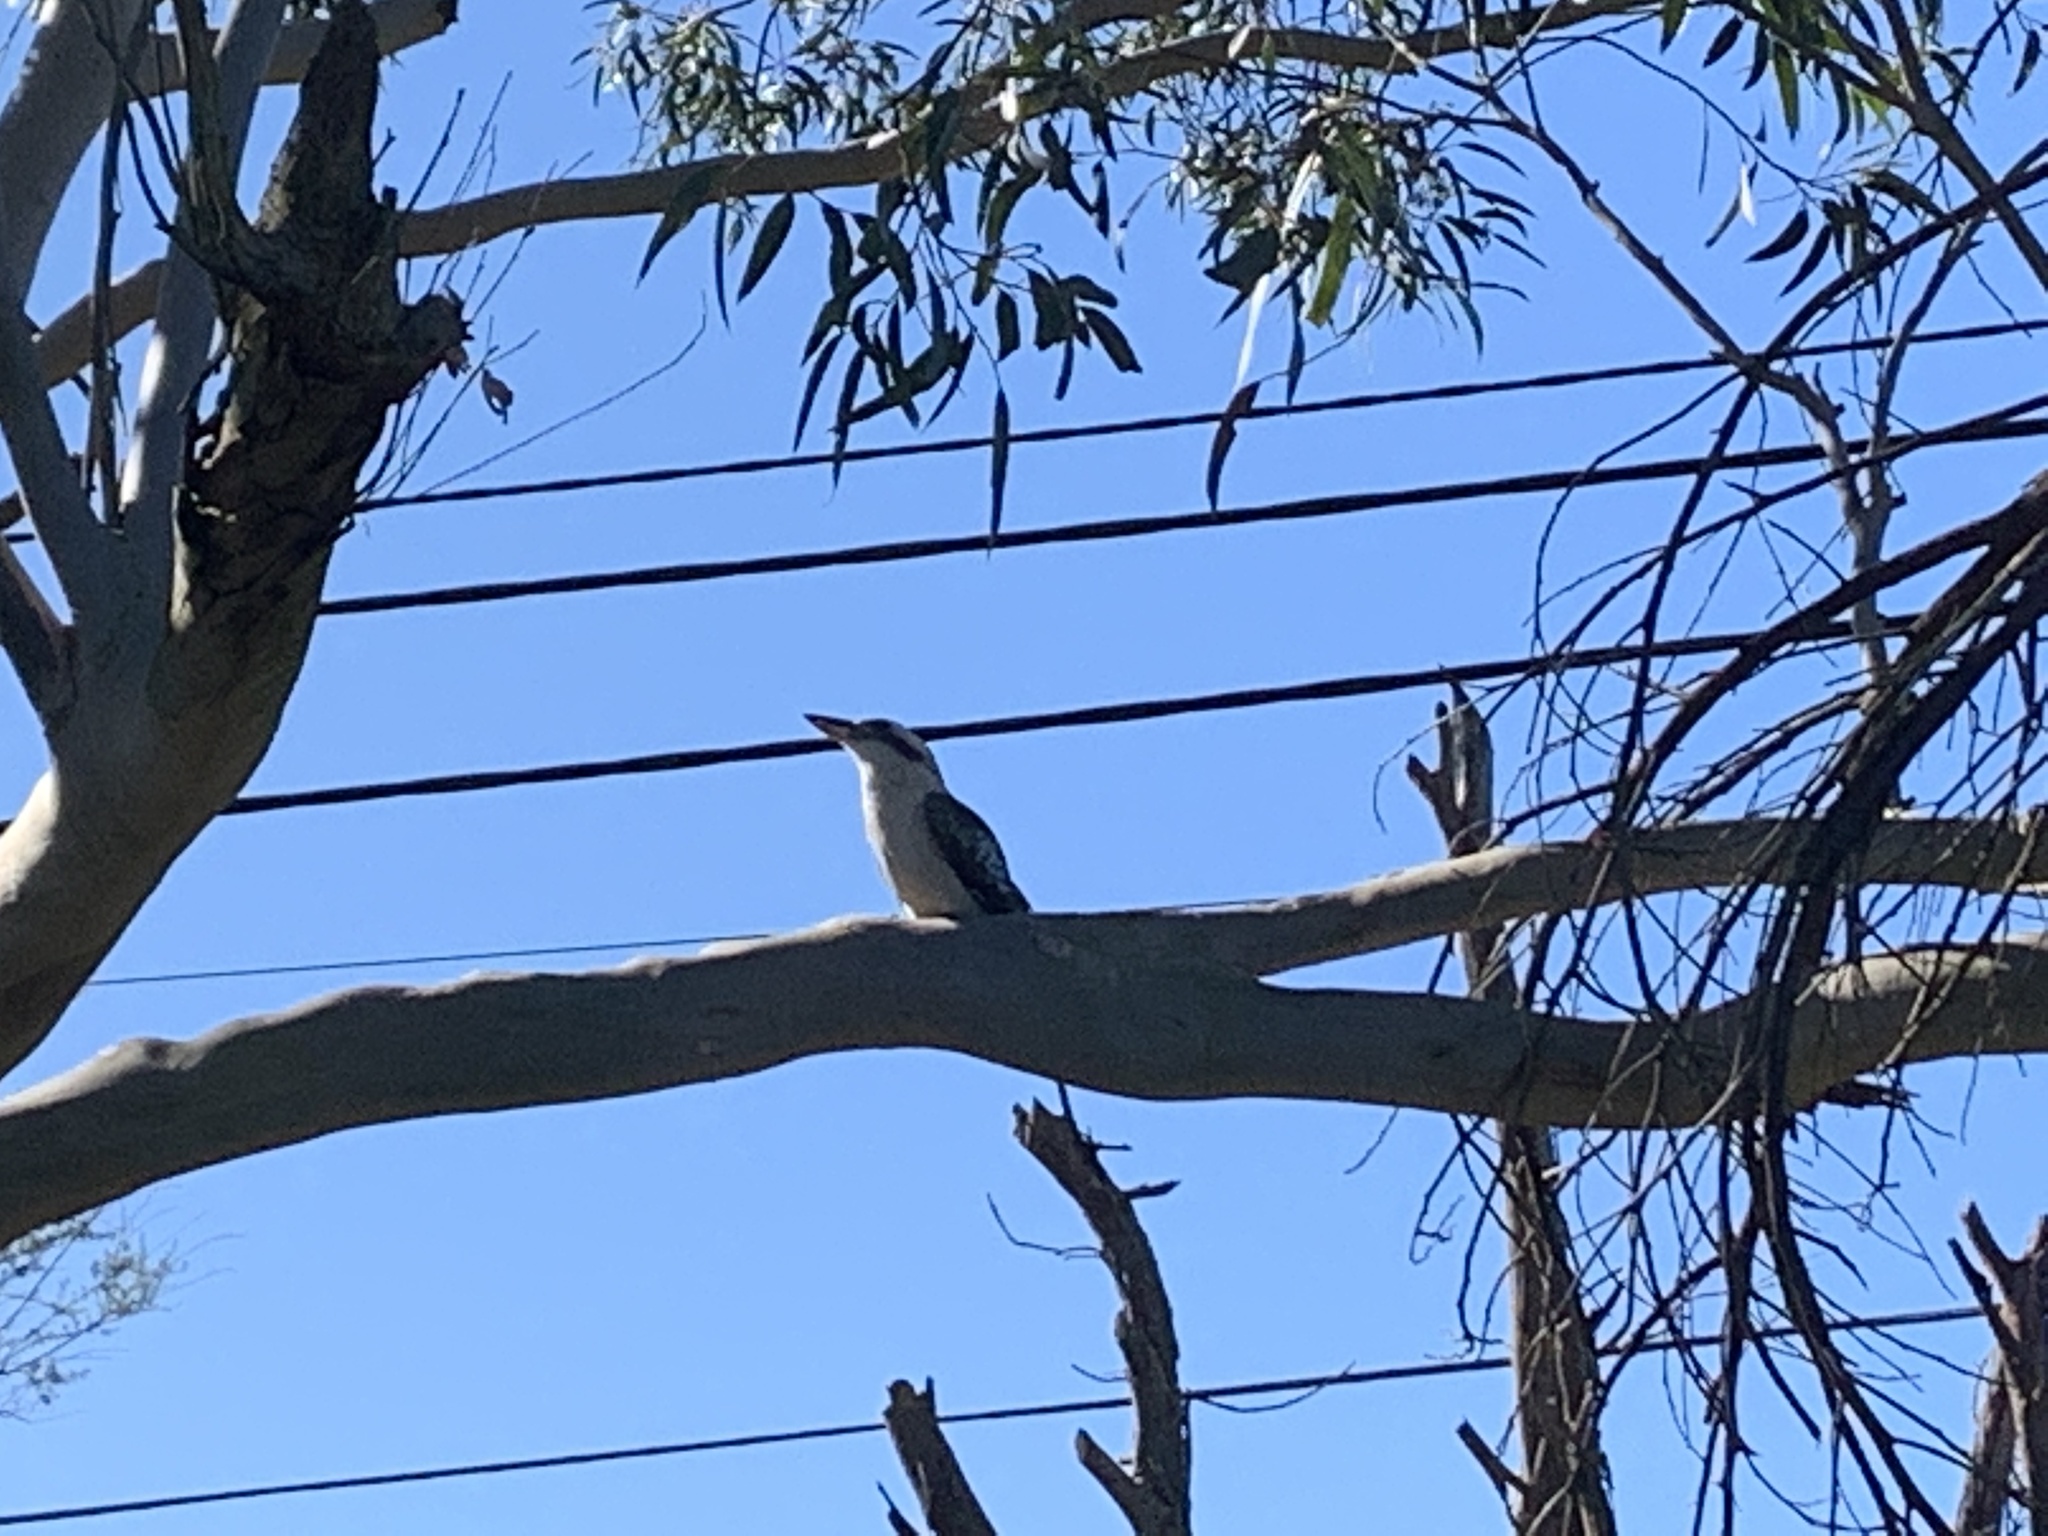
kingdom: Animalia
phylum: Chordata
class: Aves
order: Coraciiformes
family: Alcedinidae
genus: Dacelo
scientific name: Dacelo novaeguineae
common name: Laughing kookaburra
